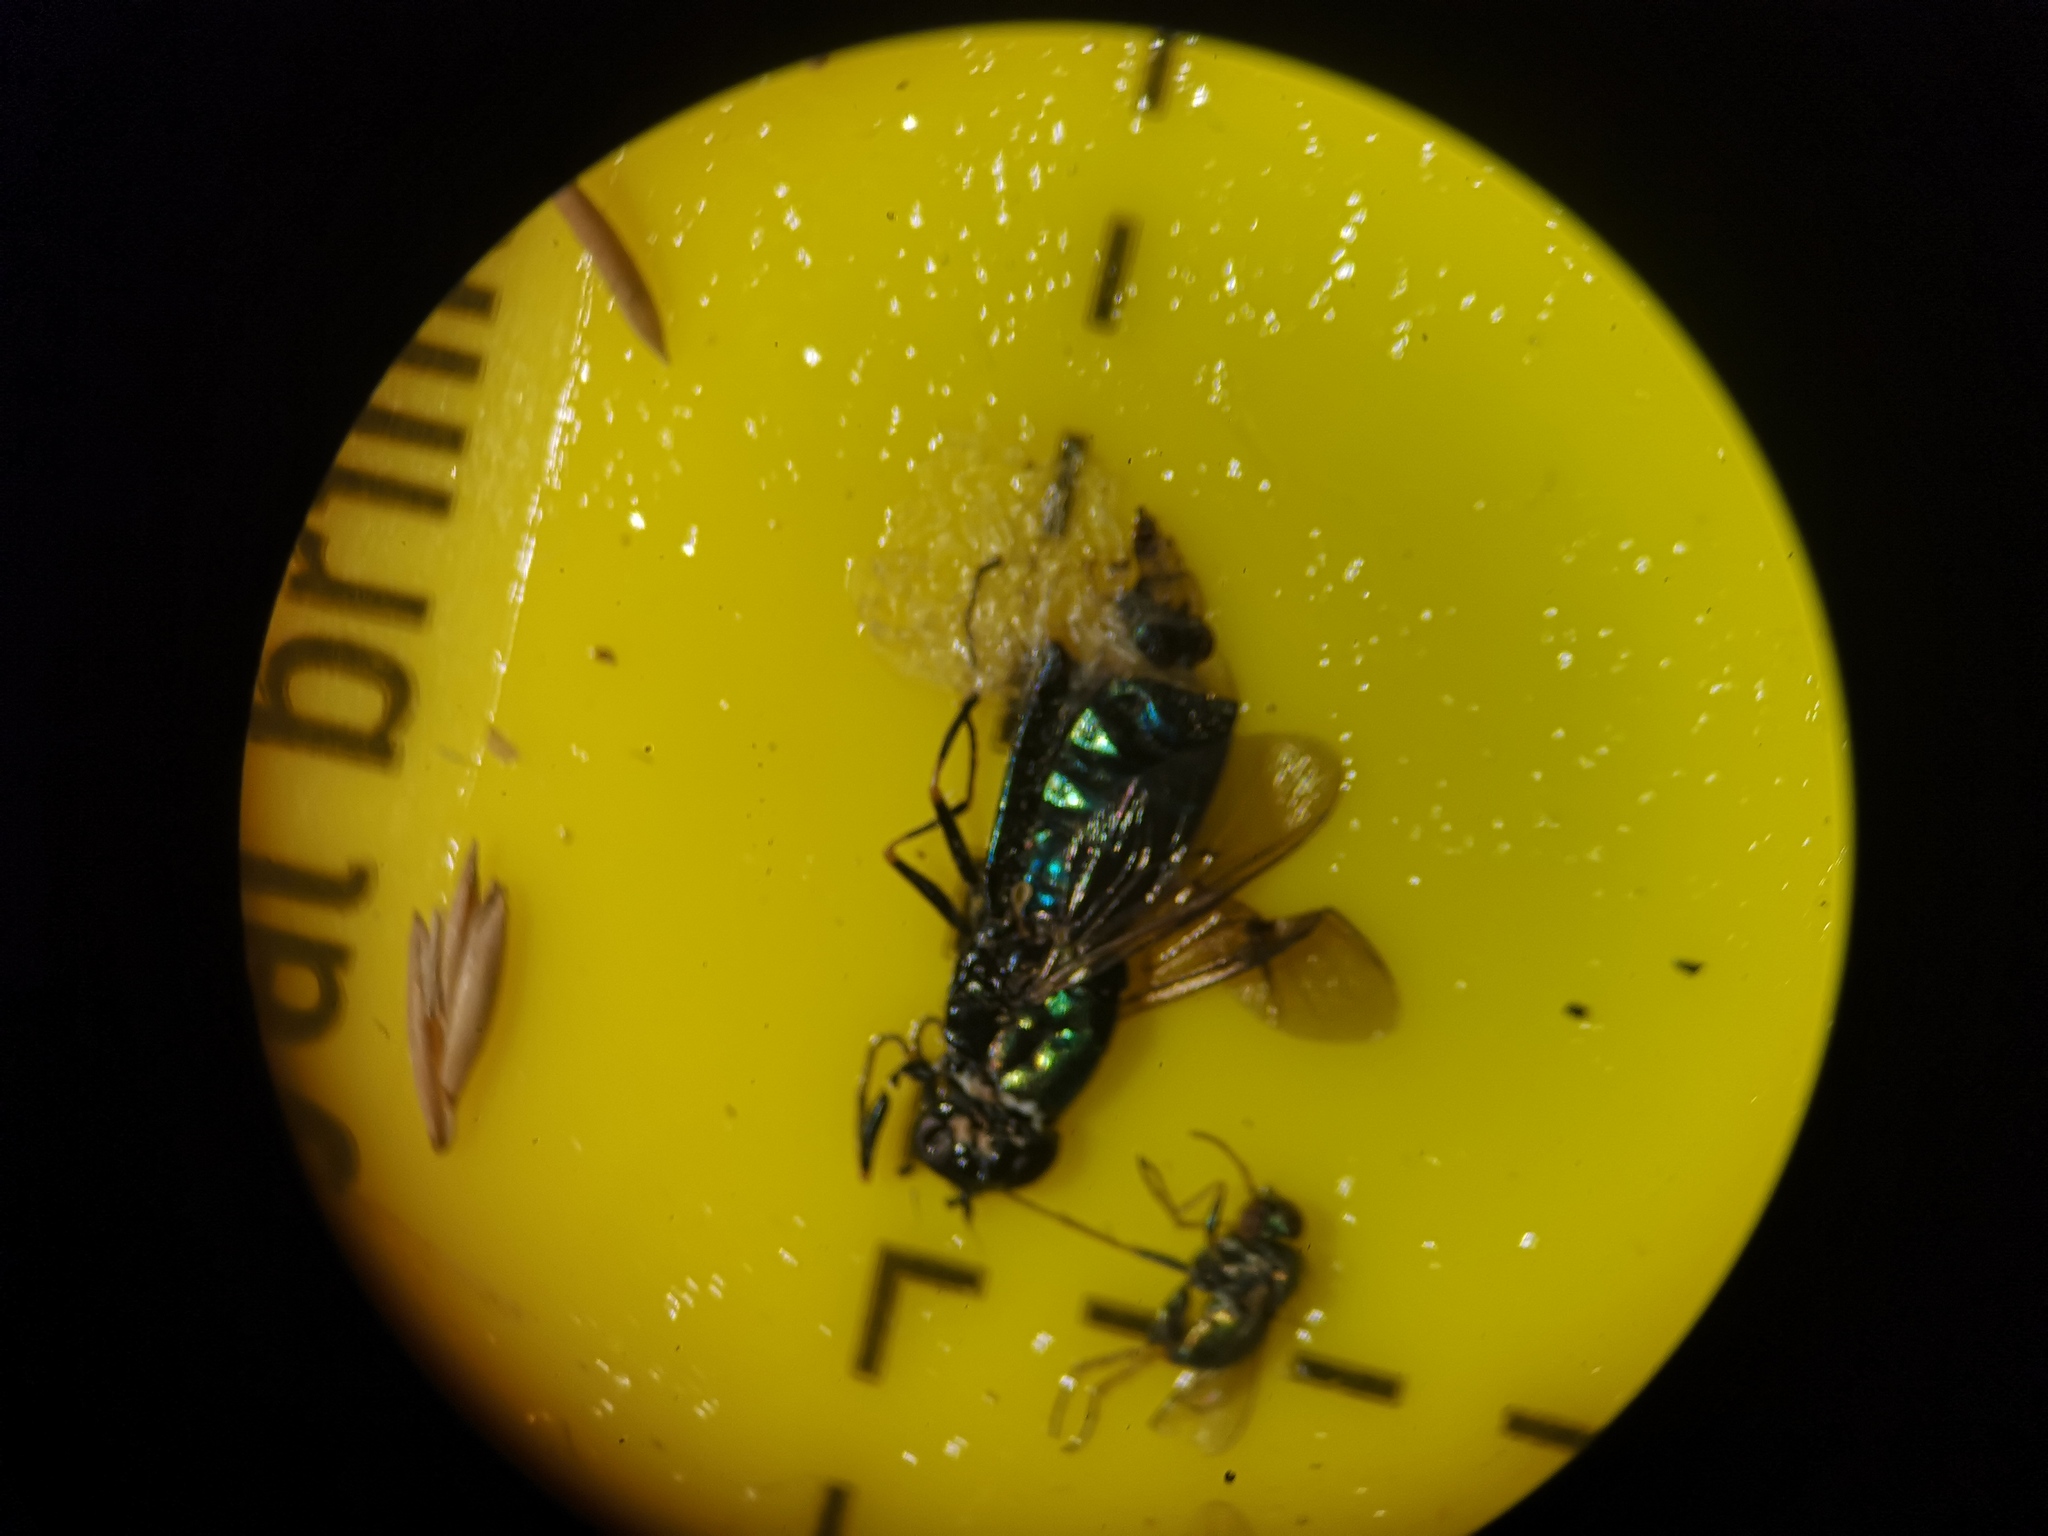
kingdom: Animalia
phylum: Arthropoda
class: Insecta
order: Diptera
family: Stratiomyidae
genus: Chloromyia
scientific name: Chloromyia formosa
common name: Soldier fly
